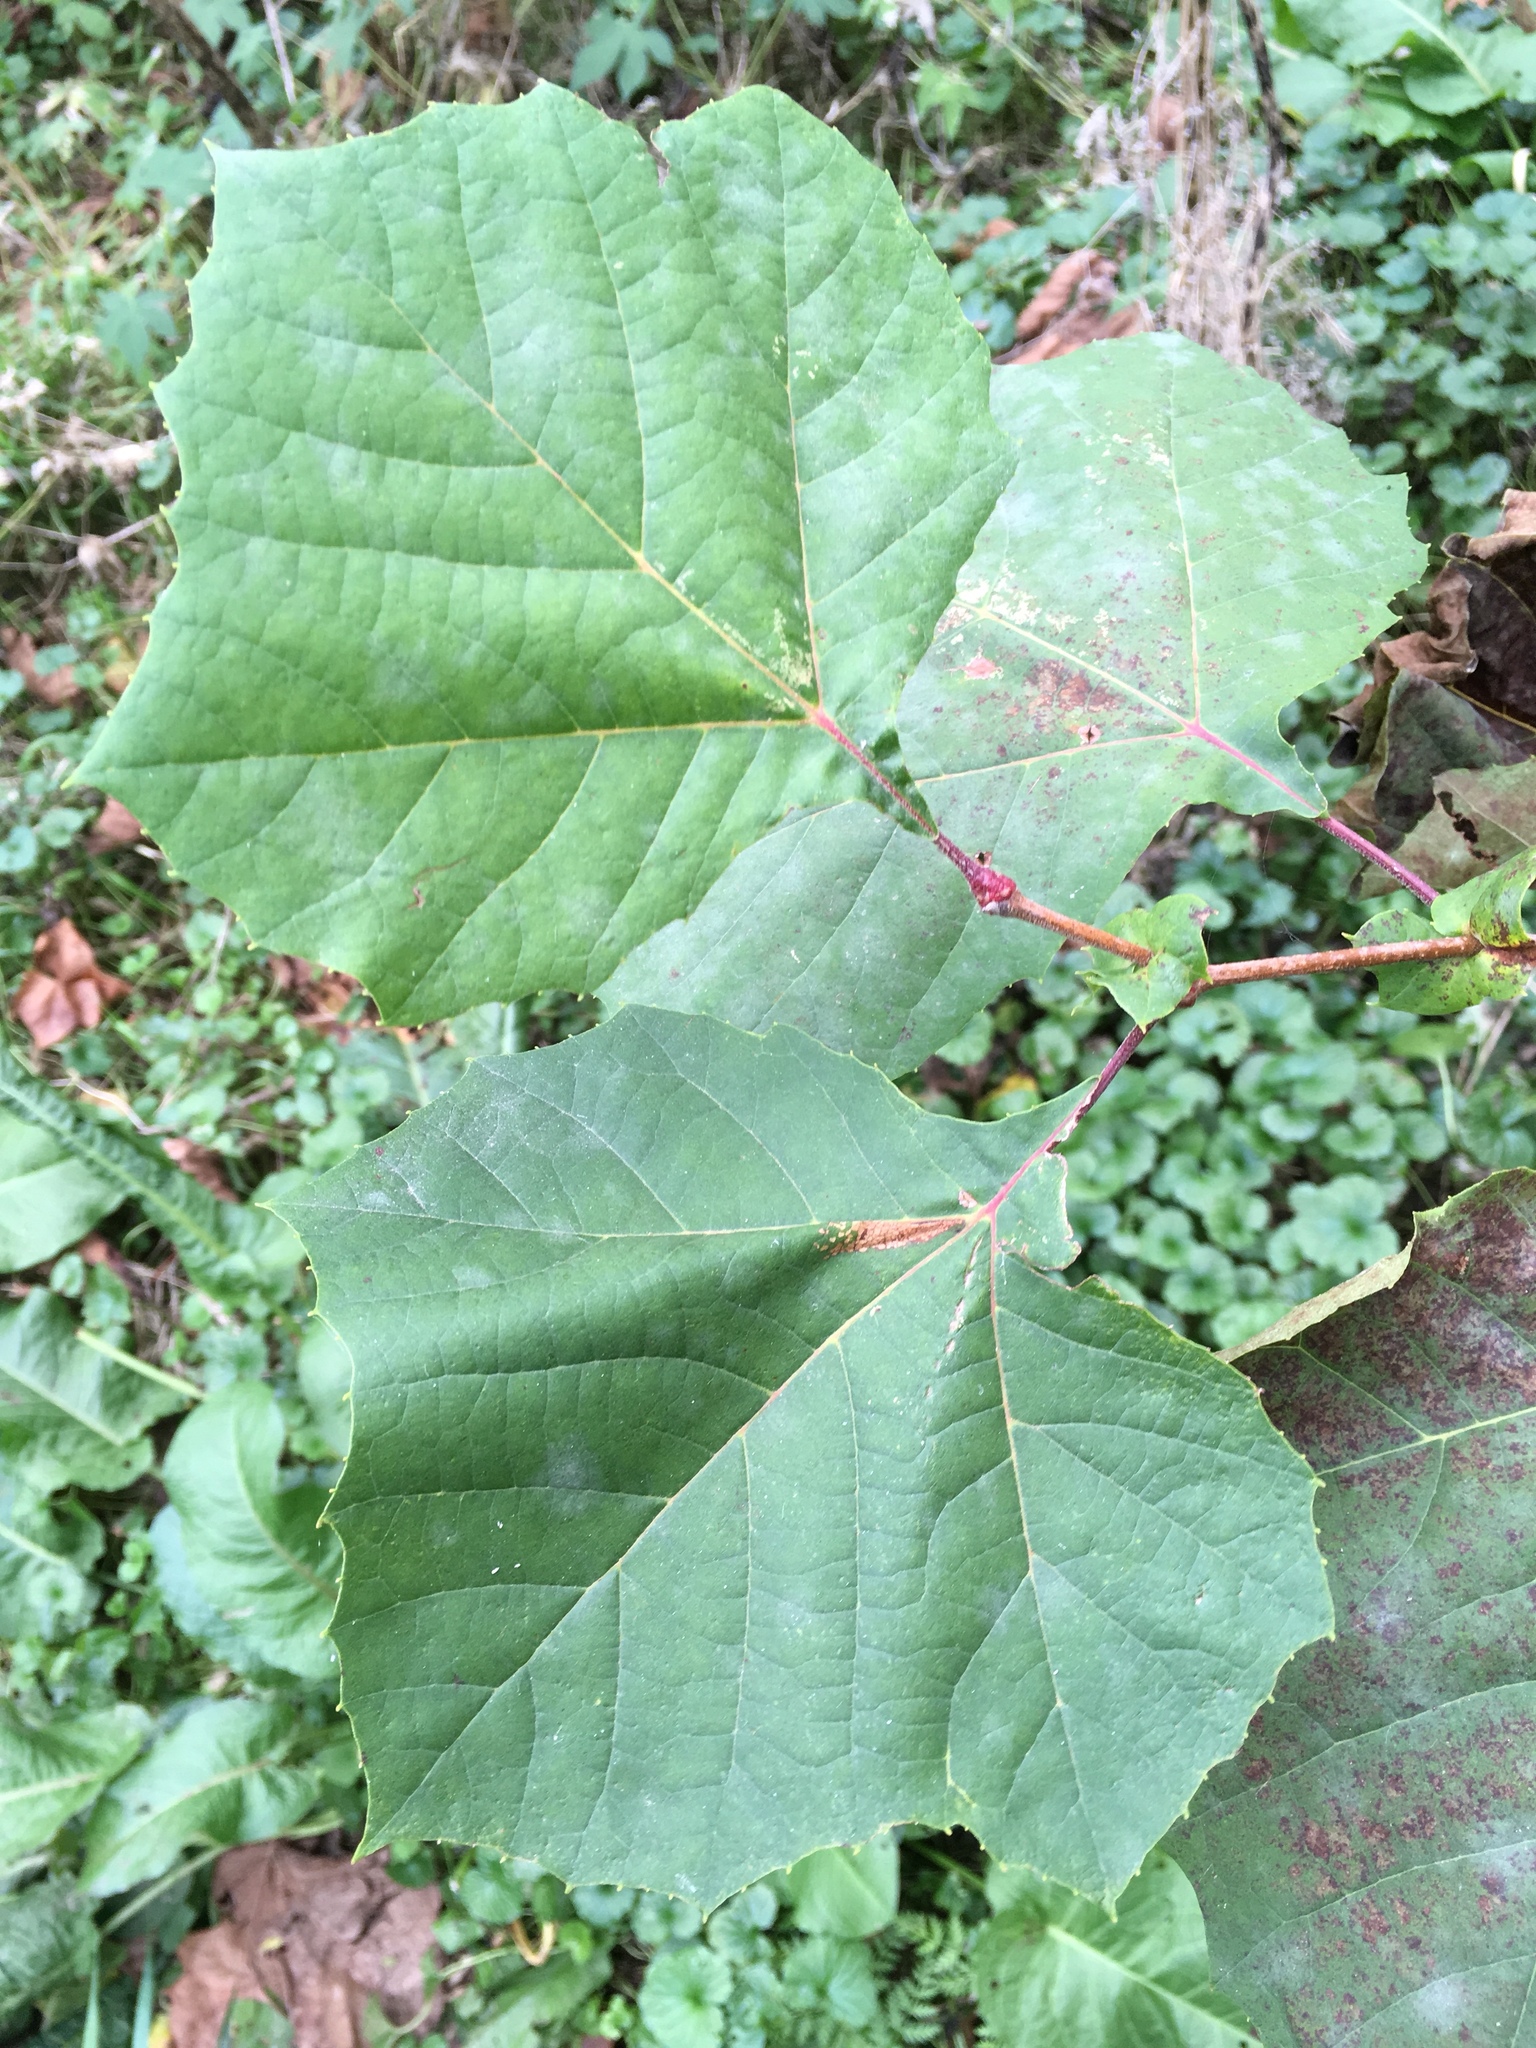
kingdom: Plantae
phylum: Tracheophyta
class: Magnoliopsida
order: Proteales
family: Platanaceae
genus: Platanus
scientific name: Platanus occidentalis
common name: American sycamore
